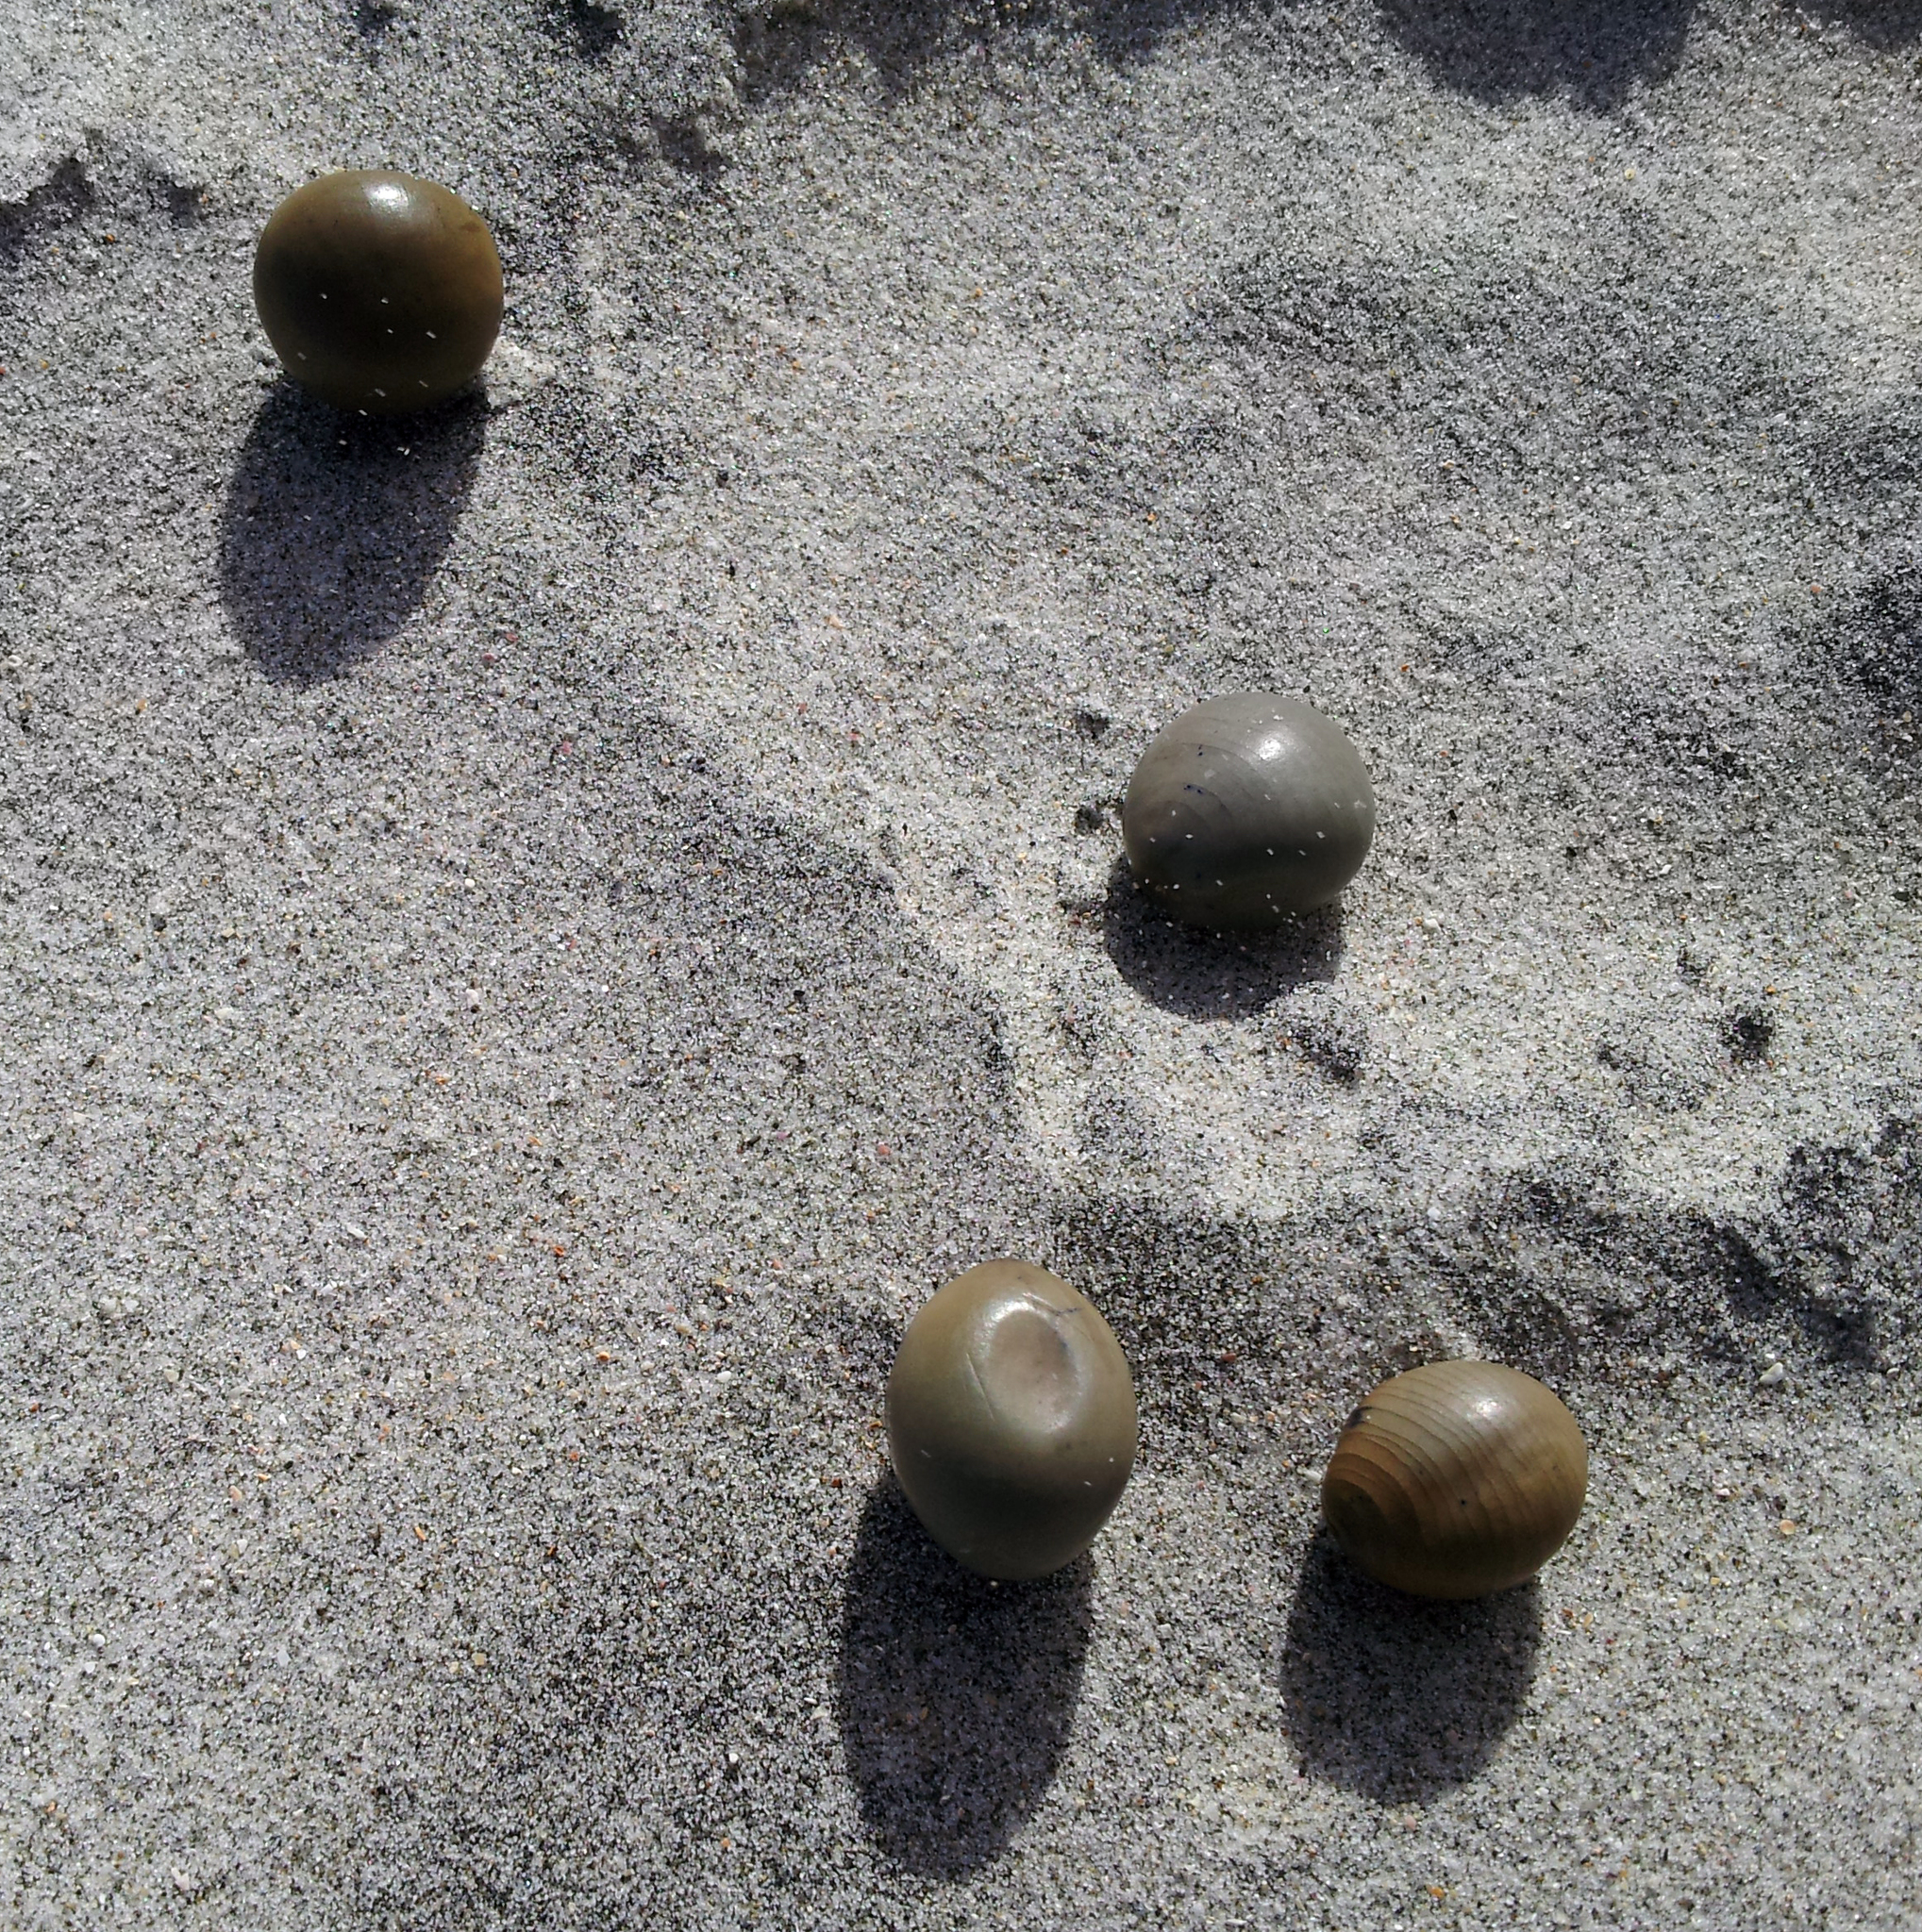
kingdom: Plantae
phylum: Tracheophyta
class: Magnoliopsida
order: Fabales
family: Fabaceae
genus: Guilandina
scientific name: Guilandina bonduc
